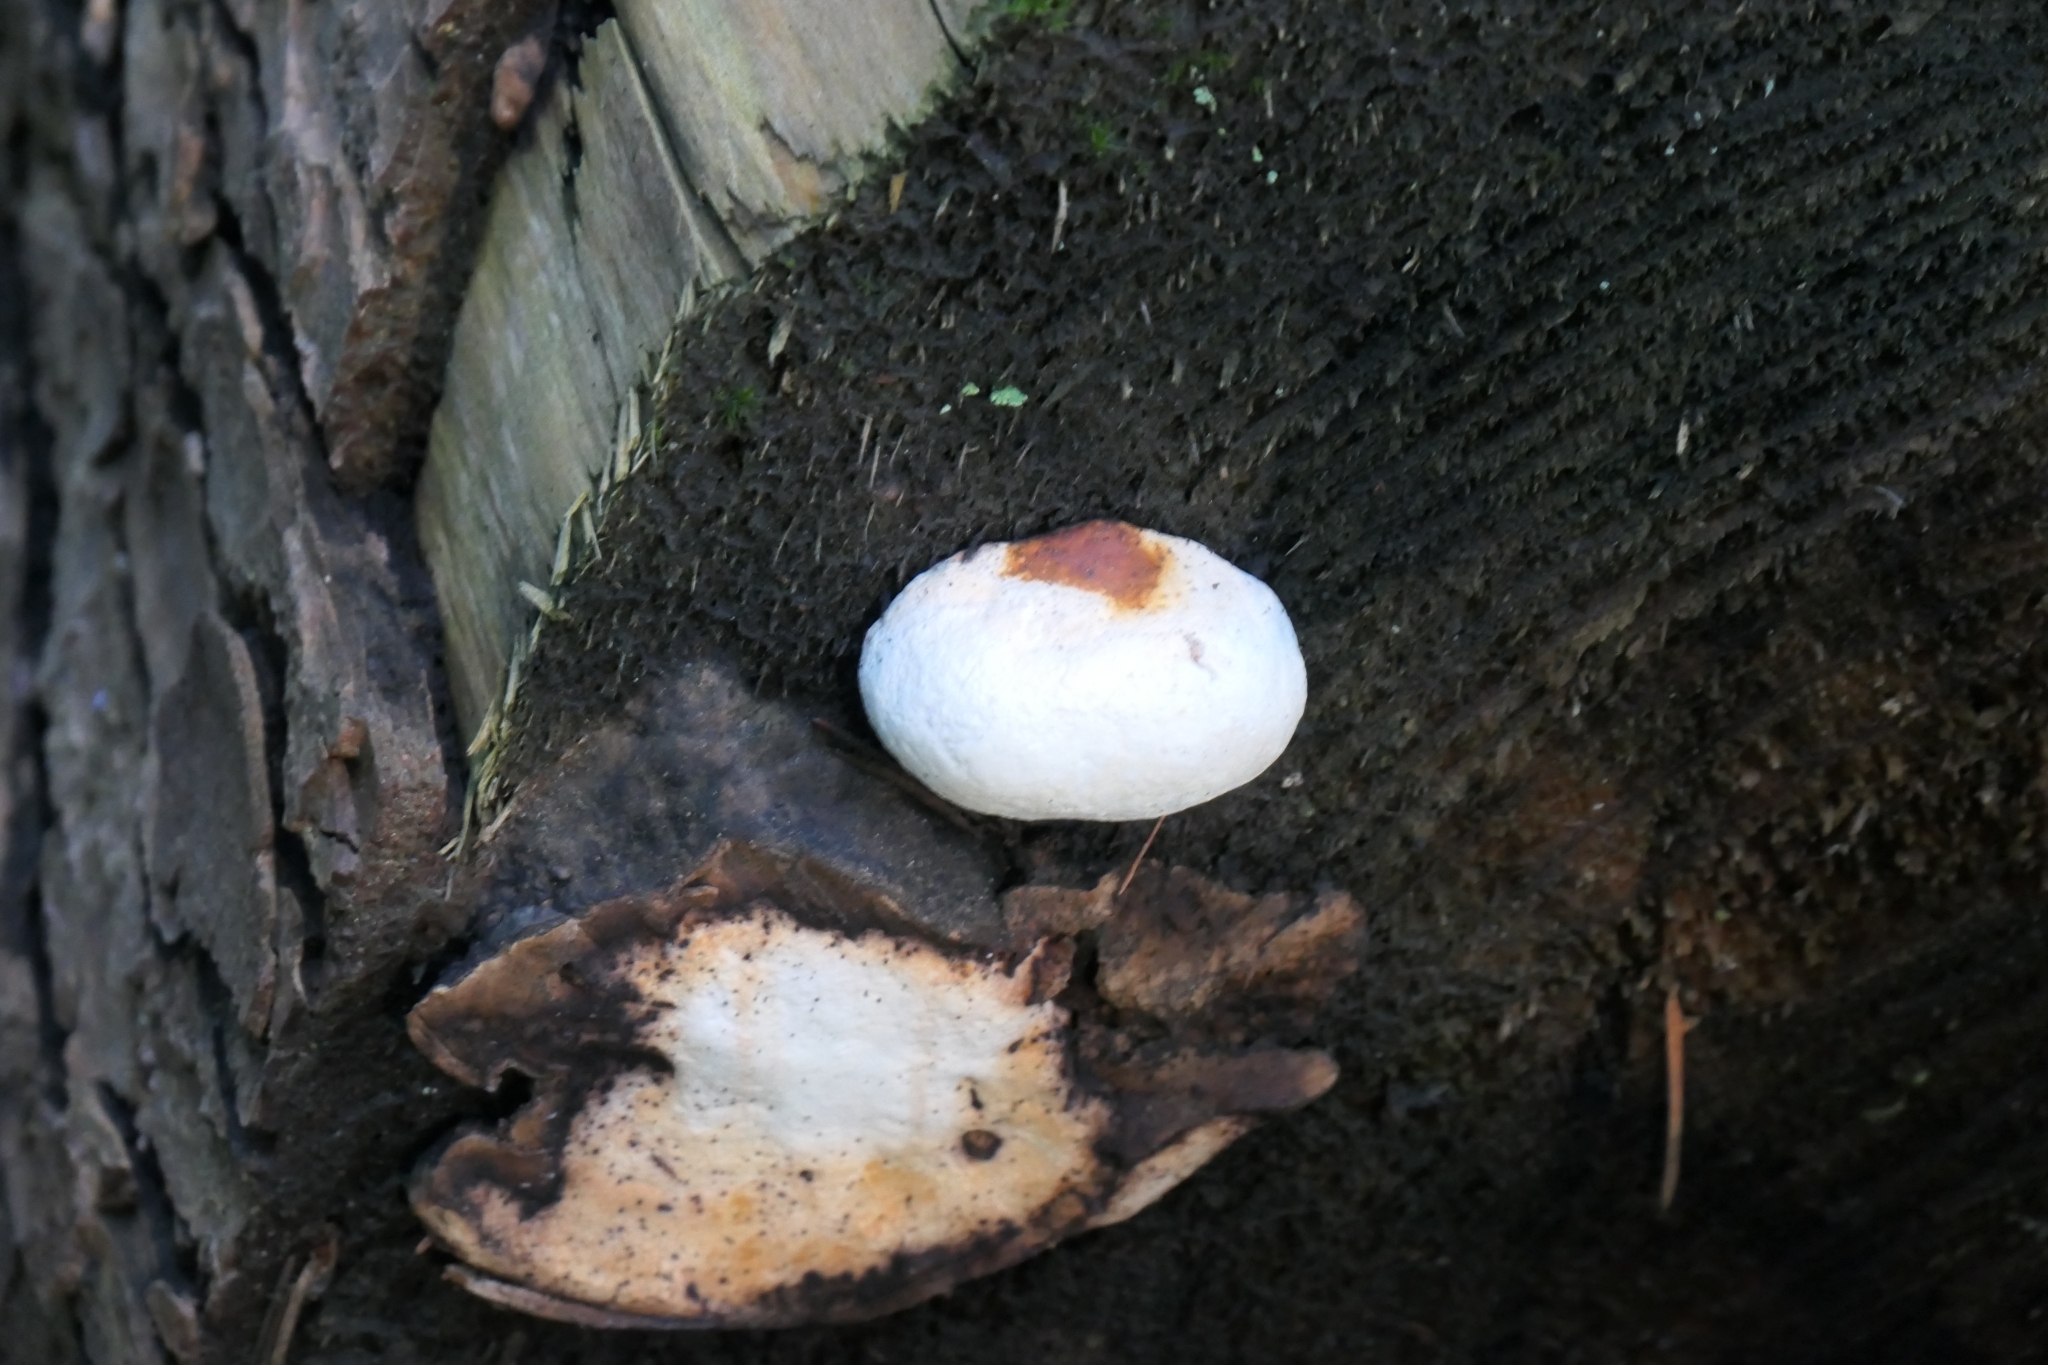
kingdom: Fungi
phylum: Basidiomycota
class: Agaricomycetes
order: Polyporales
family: Fomitopsidaceae
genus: Fomitopsis
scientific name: Fomitopsis mounceae
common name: Northern red belt
